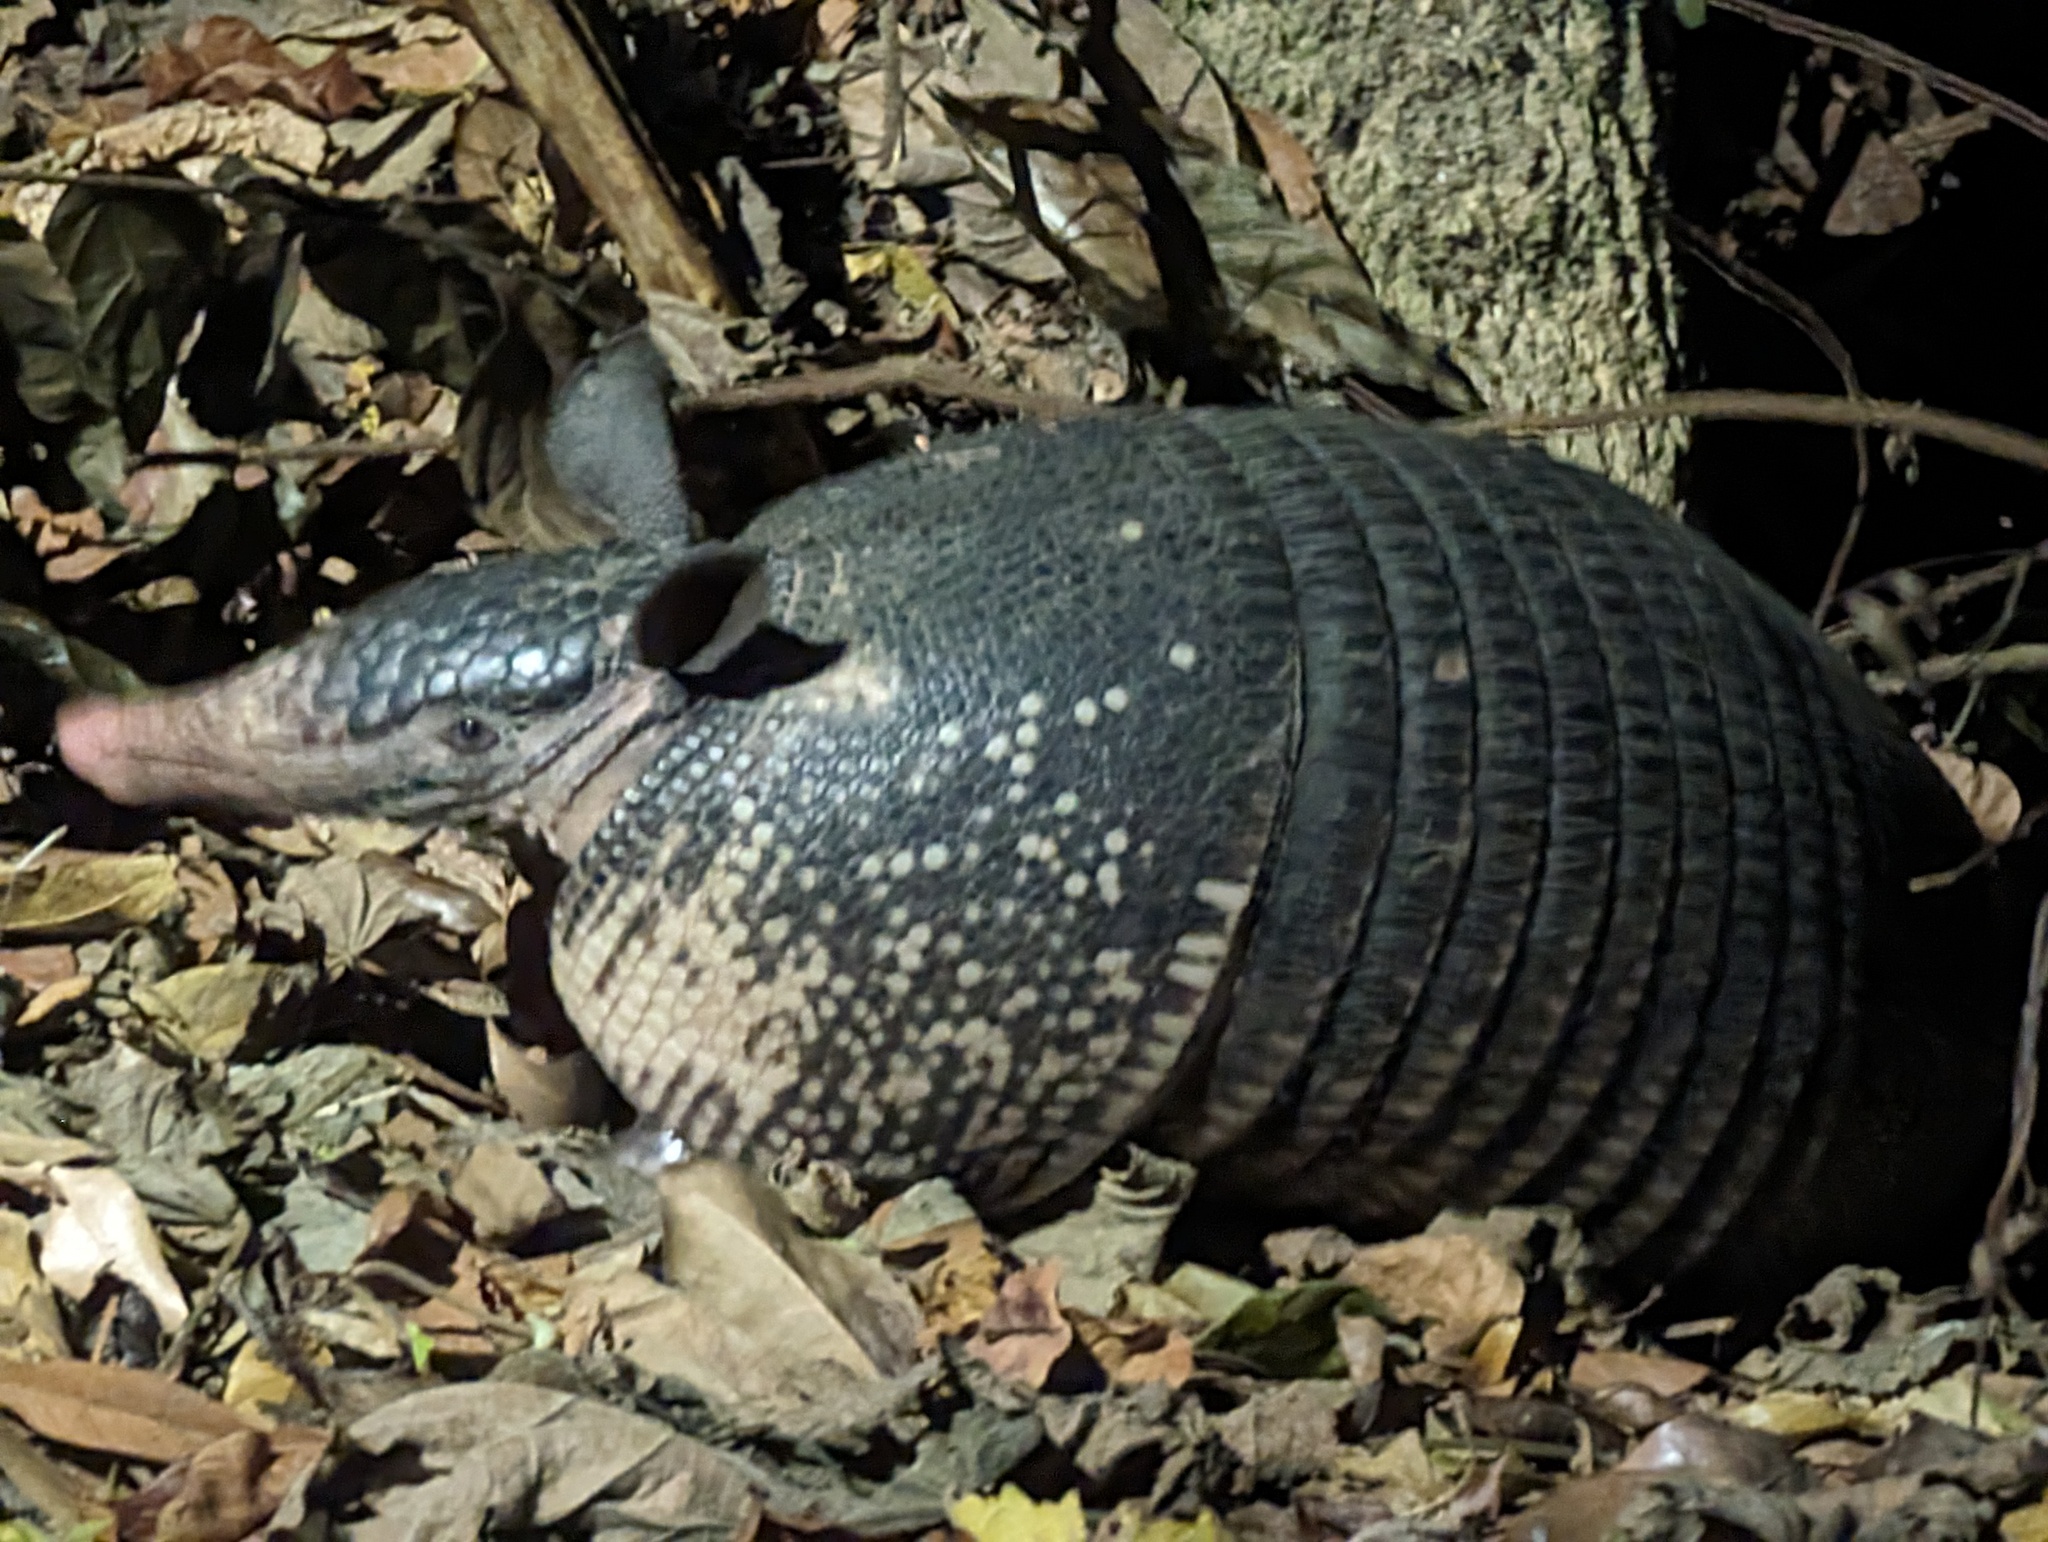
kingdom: Animalia
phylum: Chordata
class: Mammalia
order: Cingulata
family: Dasypodidae
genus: Dasypus
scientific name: Dasypus novemcinctus
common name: Nine-banded armadillo
